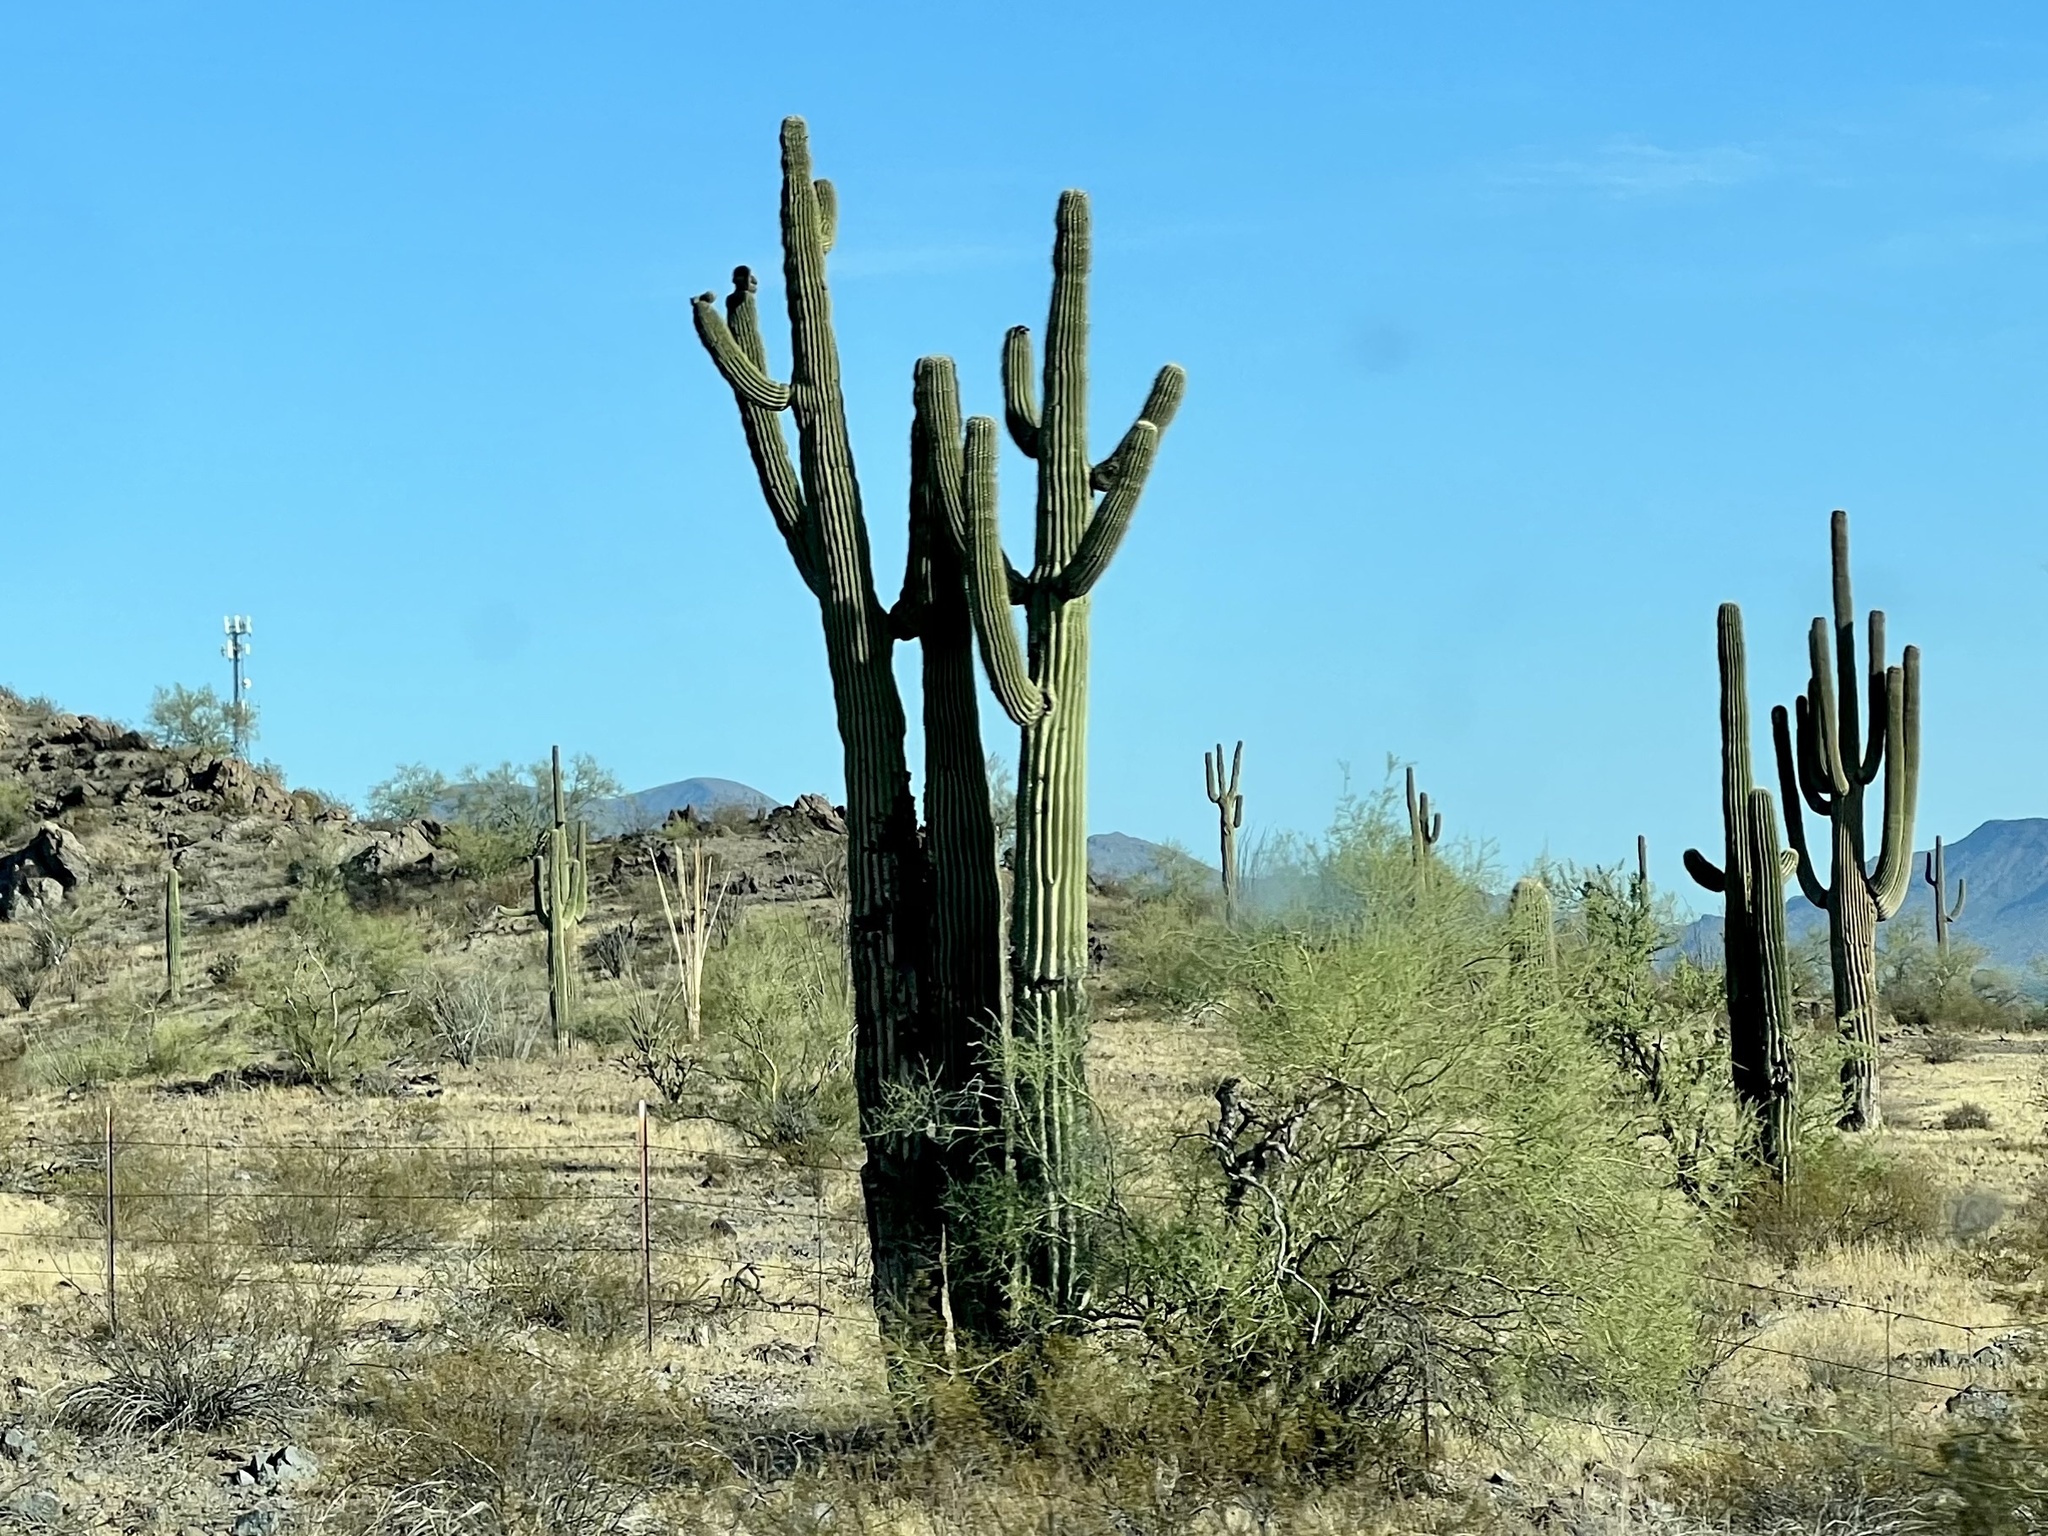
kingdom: Plantae
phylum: Tracheophyta
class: Magnoliopsida
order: Caryophyllales
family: Cactaceae
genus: Carnegiea
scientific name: Carnegiea gigantea
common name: Saguaro
